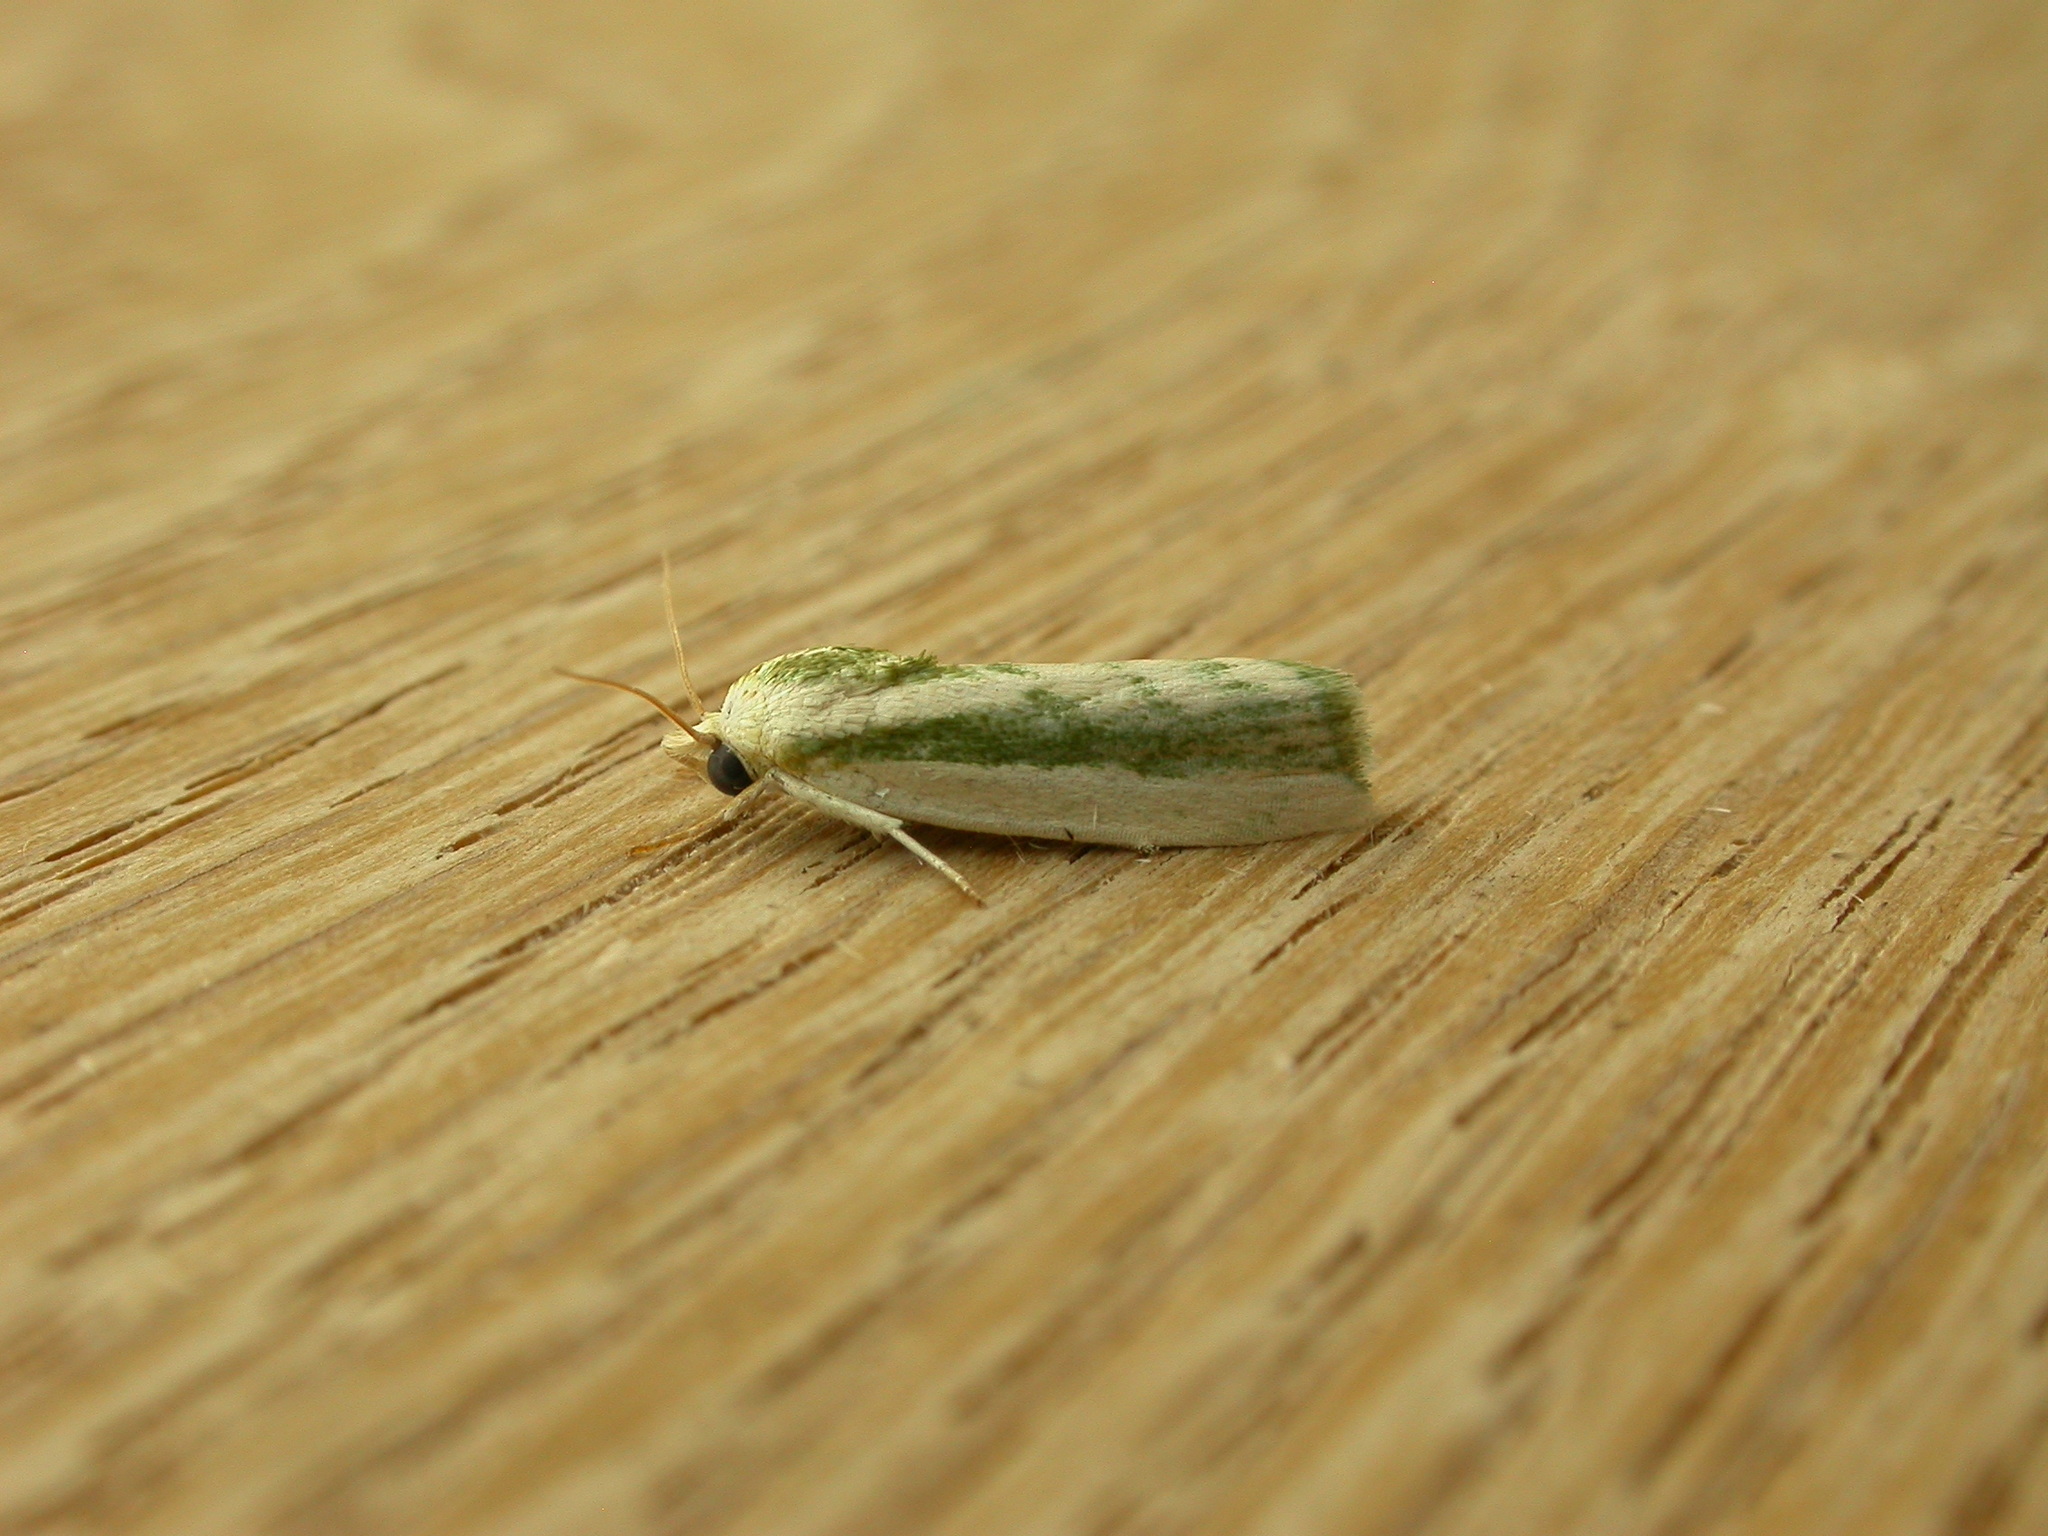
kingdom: Animalia
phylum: Arthropoda
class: Insecta
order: Lepidoptera
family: Nolidae
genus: Earias
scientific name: Earias huegeliana
